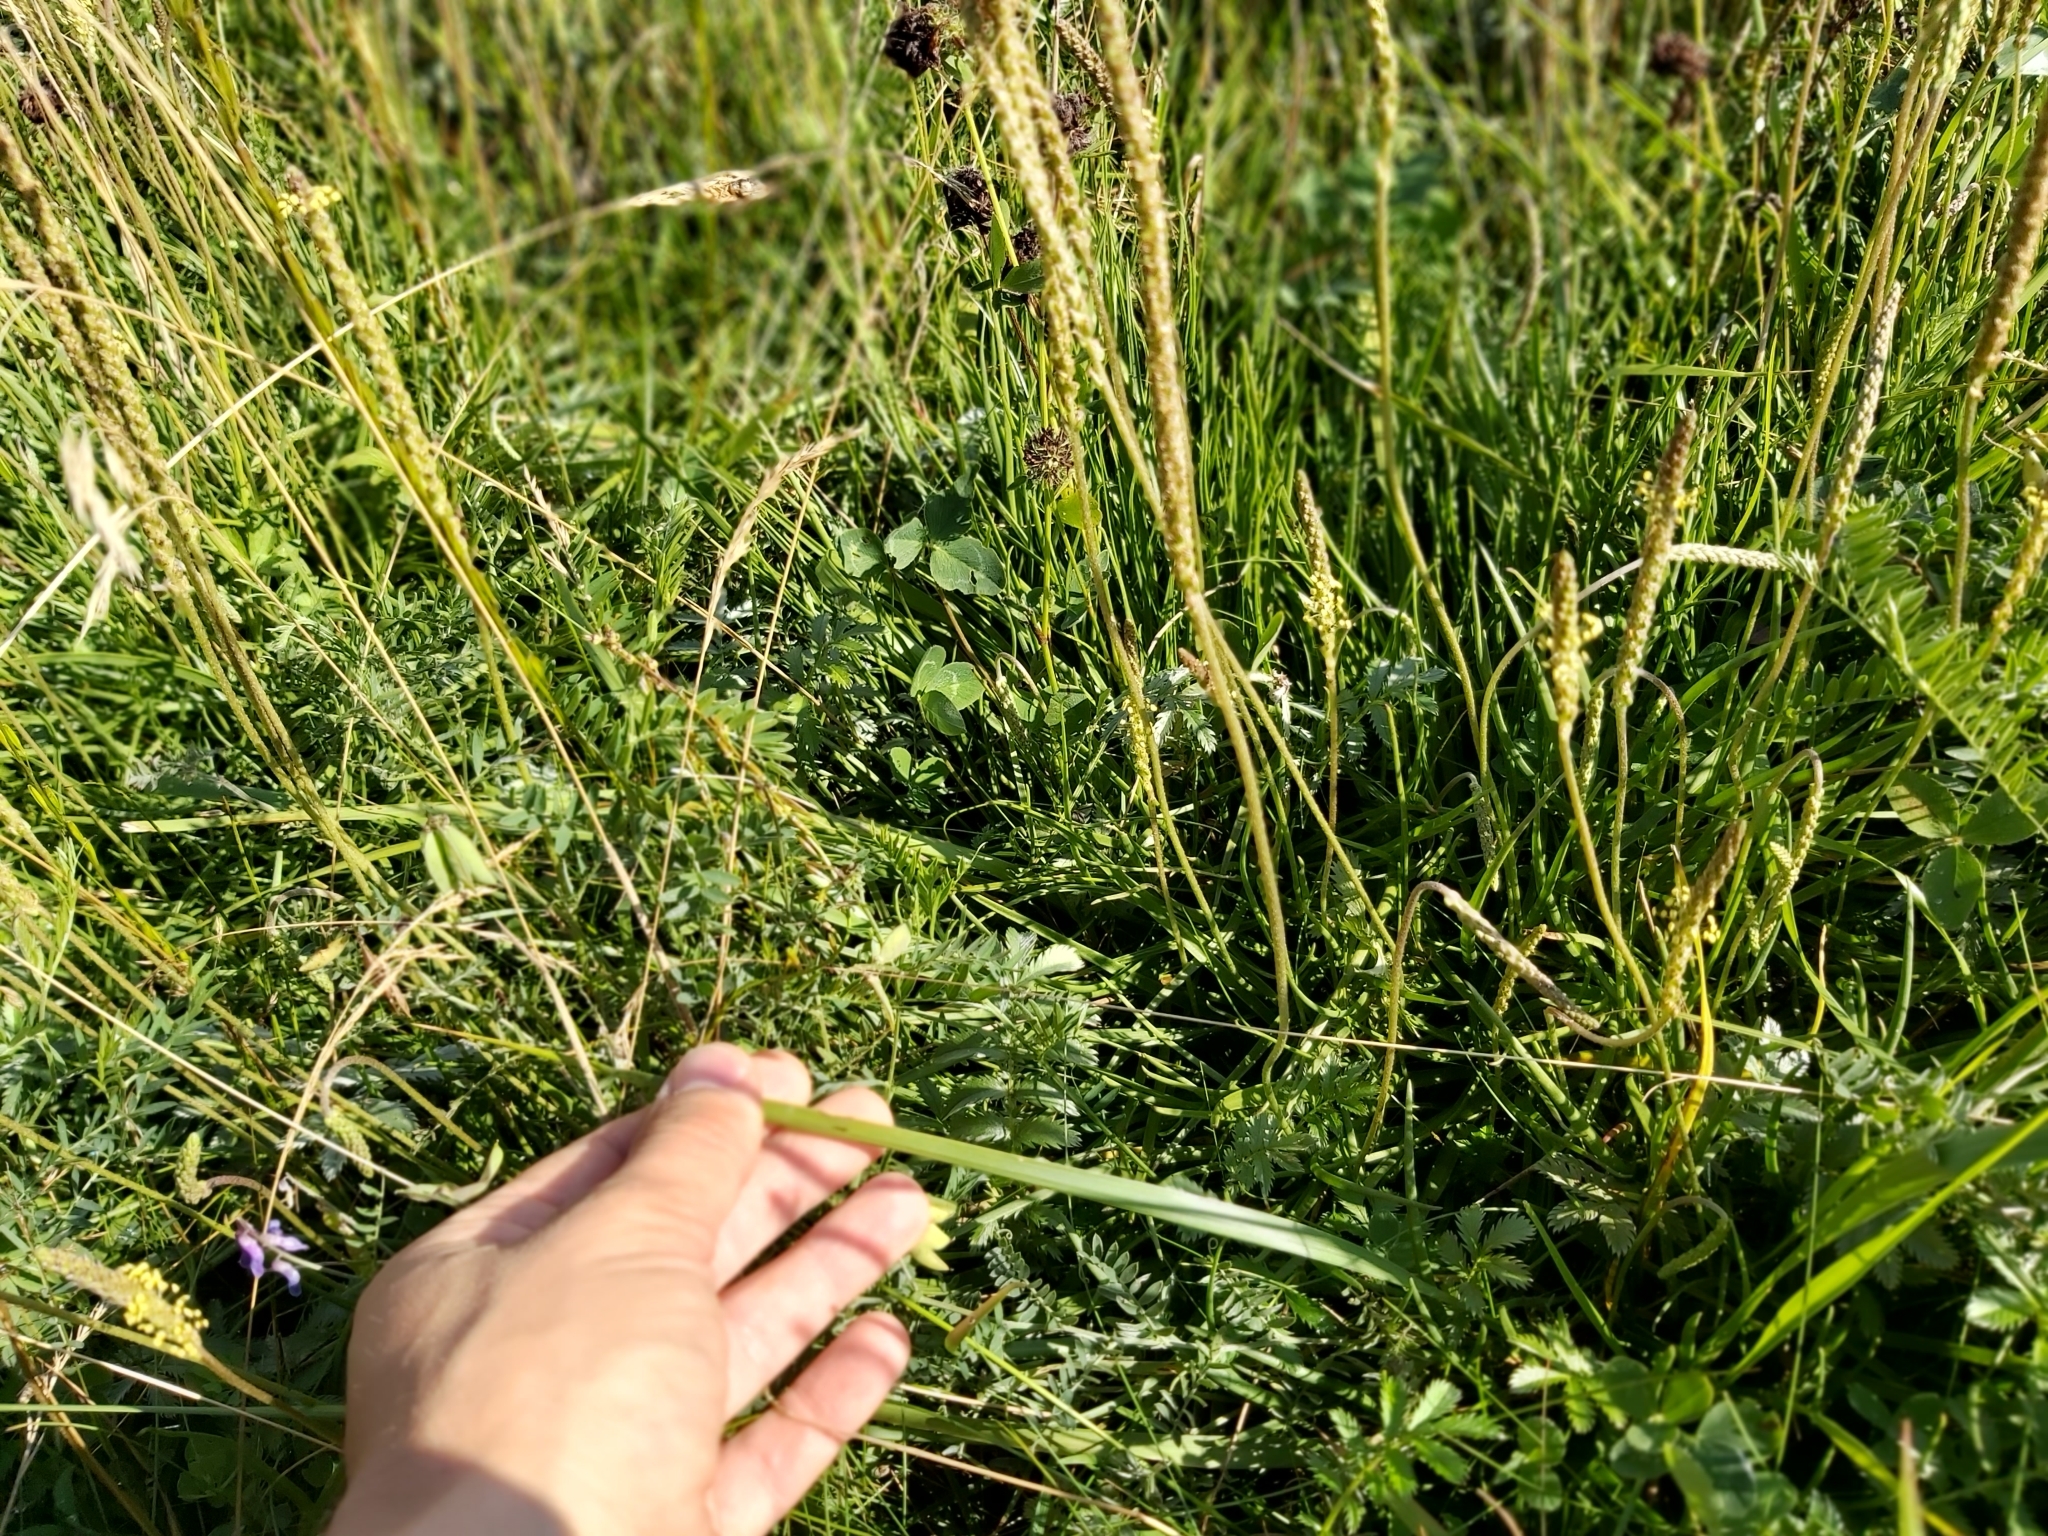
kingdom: Plantae
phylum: Tracheophyta
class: Magnoliopsida
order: Lamiales
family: Plantaginaceae
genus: Plantago
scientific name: Plantago maritima
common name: Sea plantain
